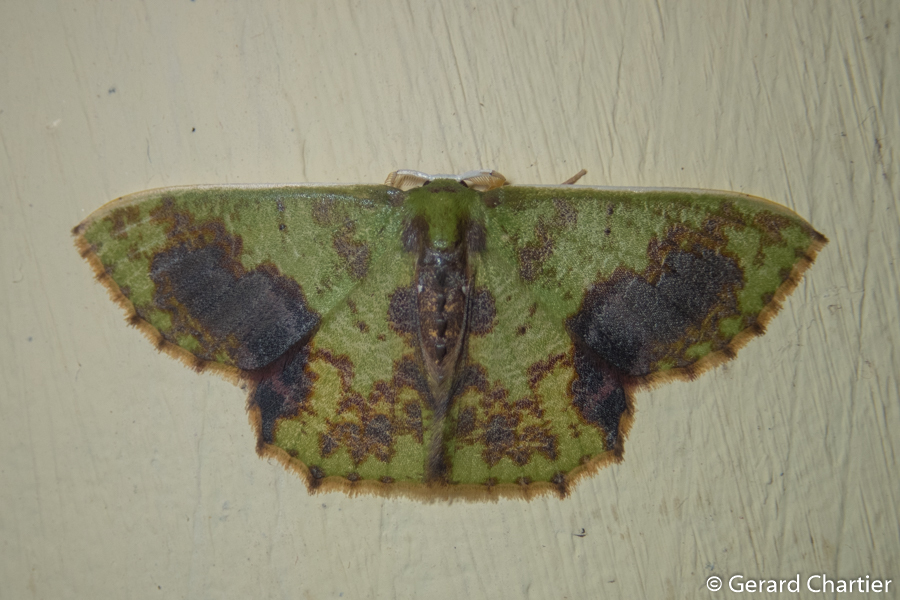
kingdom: Animalia
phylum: Arthropoda
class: Insecta
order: Lepidoptera
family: Geometridae
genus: Chloromianta
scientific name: Chloromianta ferruginata
